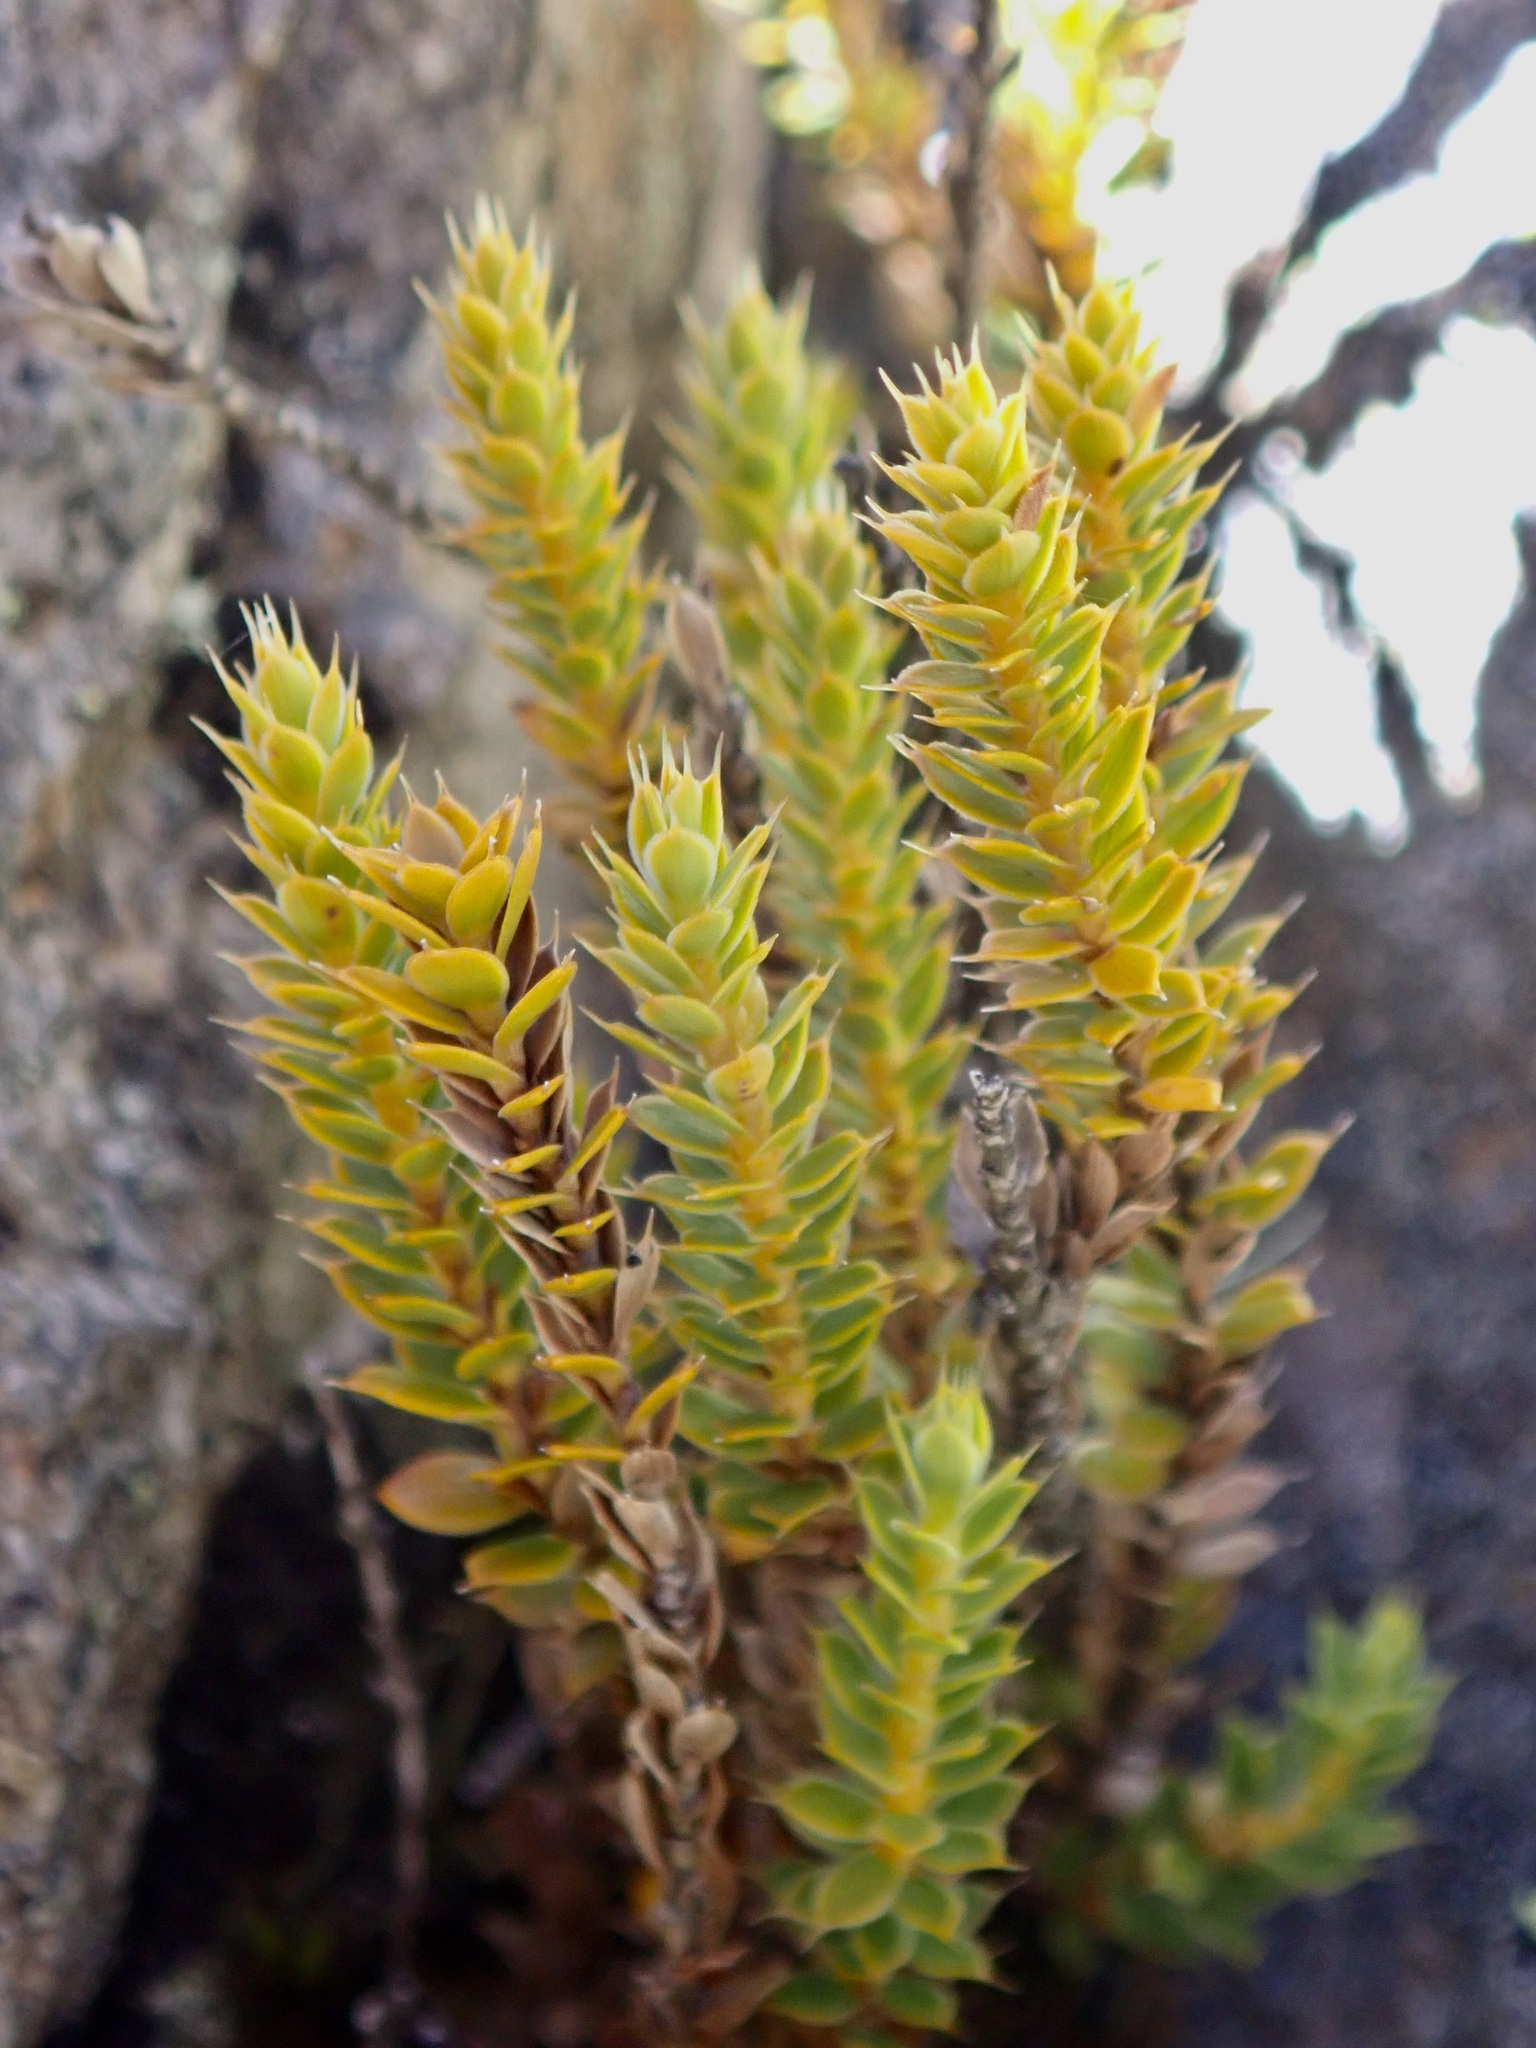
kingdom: Plantae
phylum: Tracheophyta
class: Magnoliopsida
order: Ericales
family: Ericaceae
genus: Styphelia
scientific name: Styphelia nesophila
